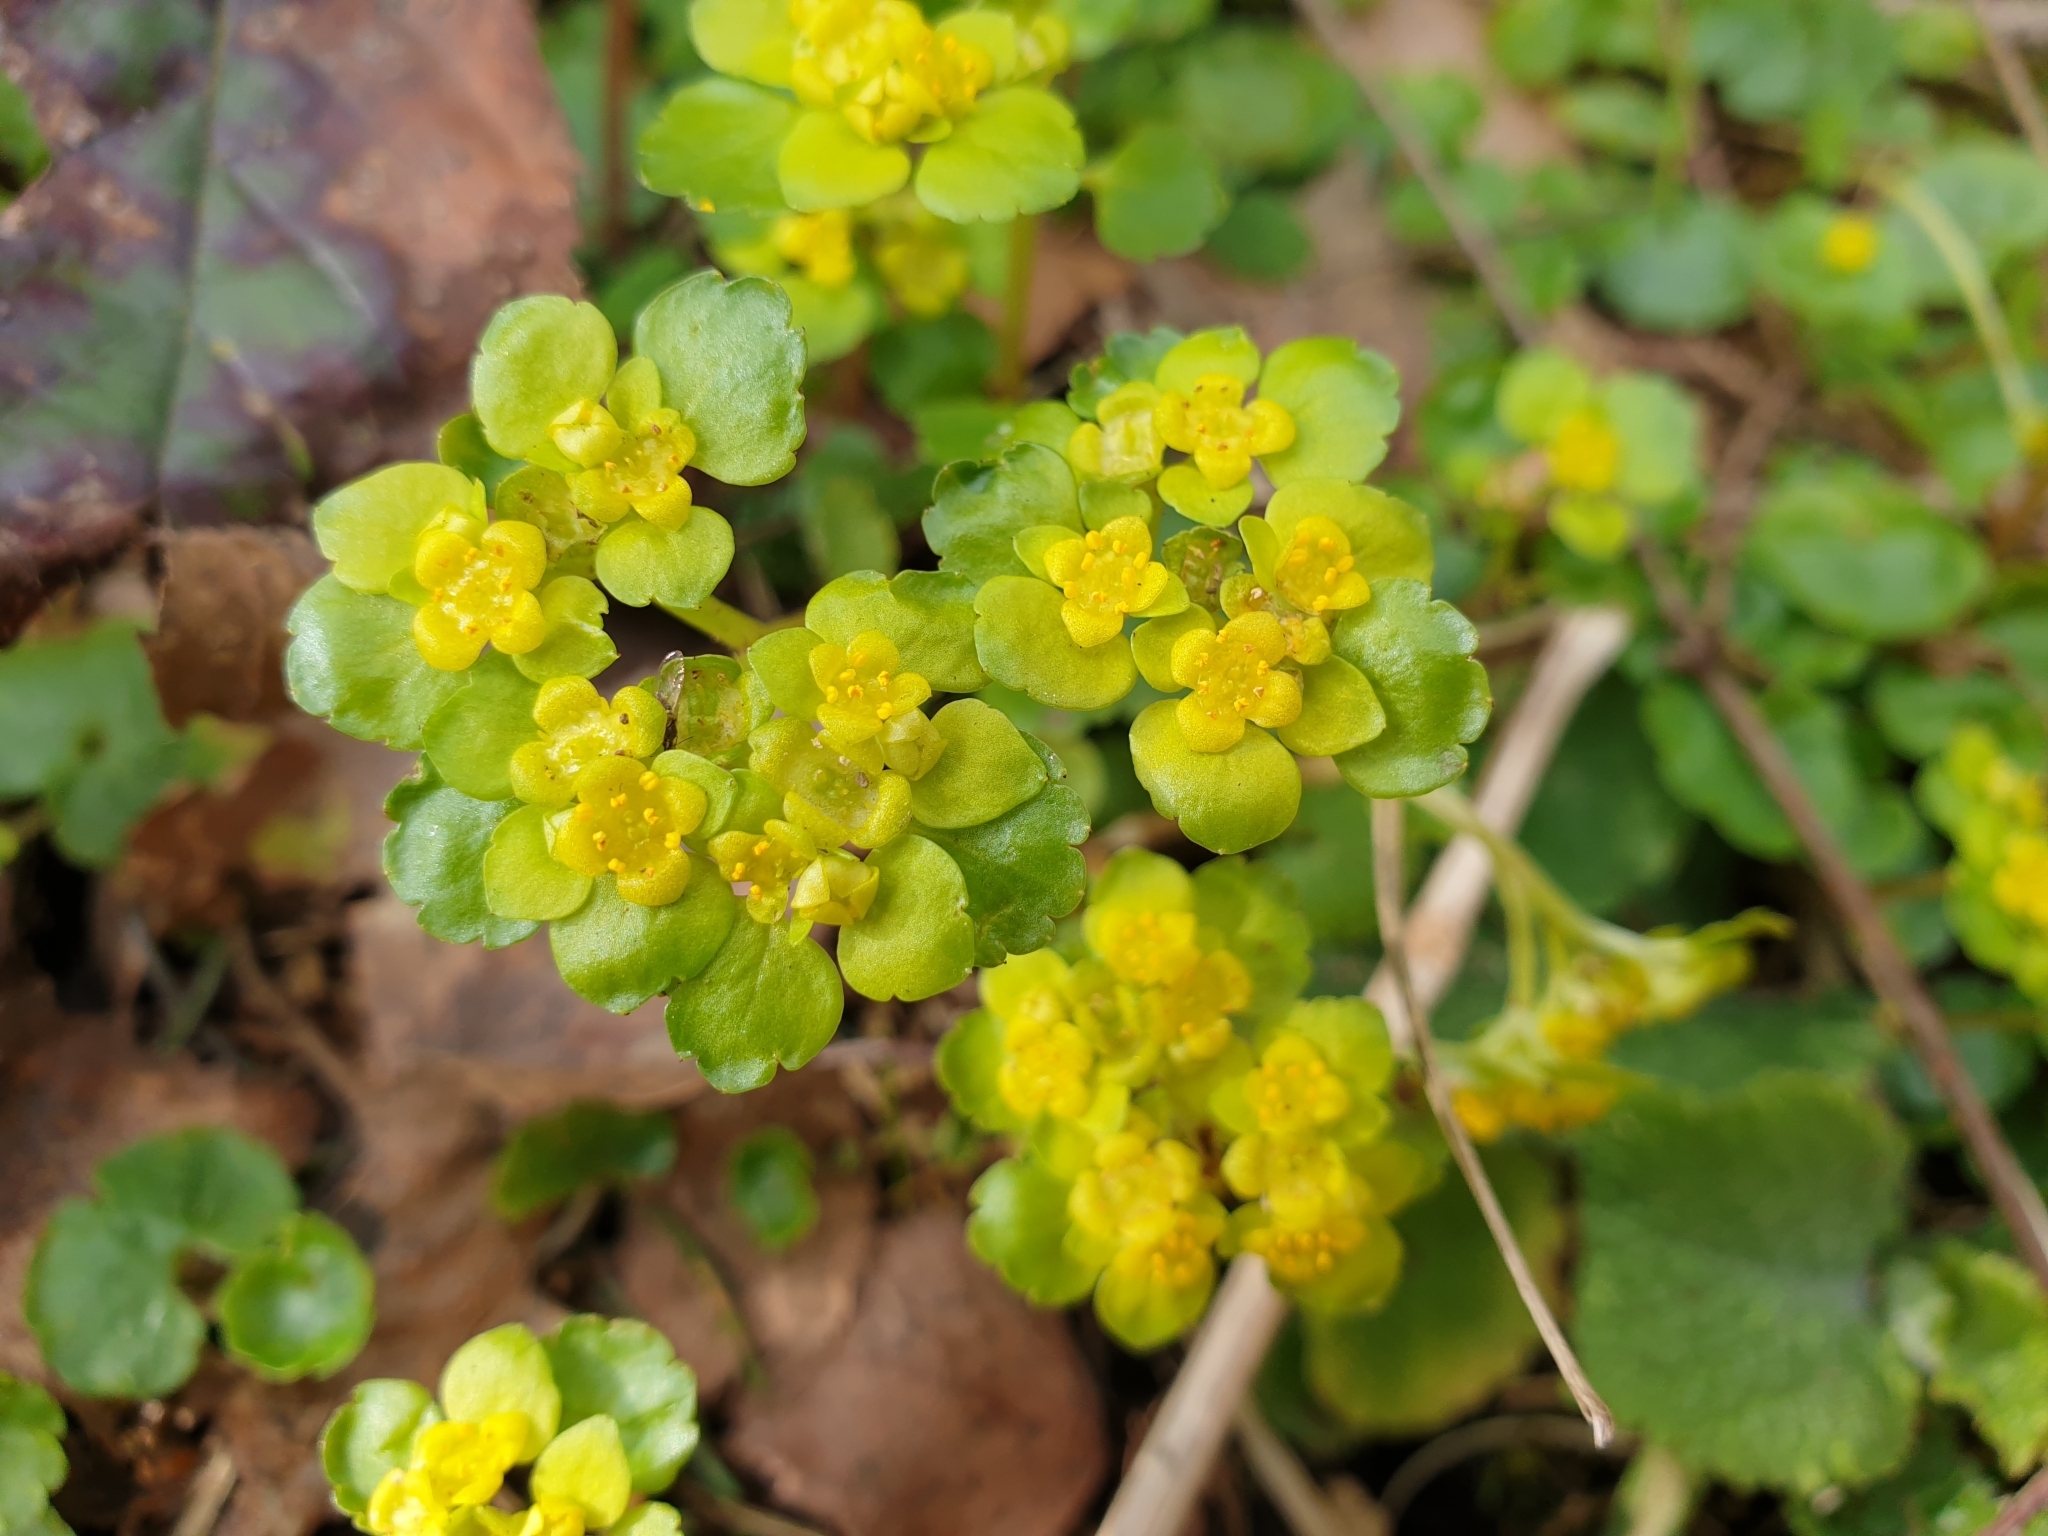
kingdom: Plantae
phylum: Tracheophyta
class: Magnoliopsida
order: Saxifragales
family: Saxifragaceae
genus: Chrysosplenium
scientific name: Chrysosplenium alternifolium
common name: Alternate-leaved golden-saxifrage
